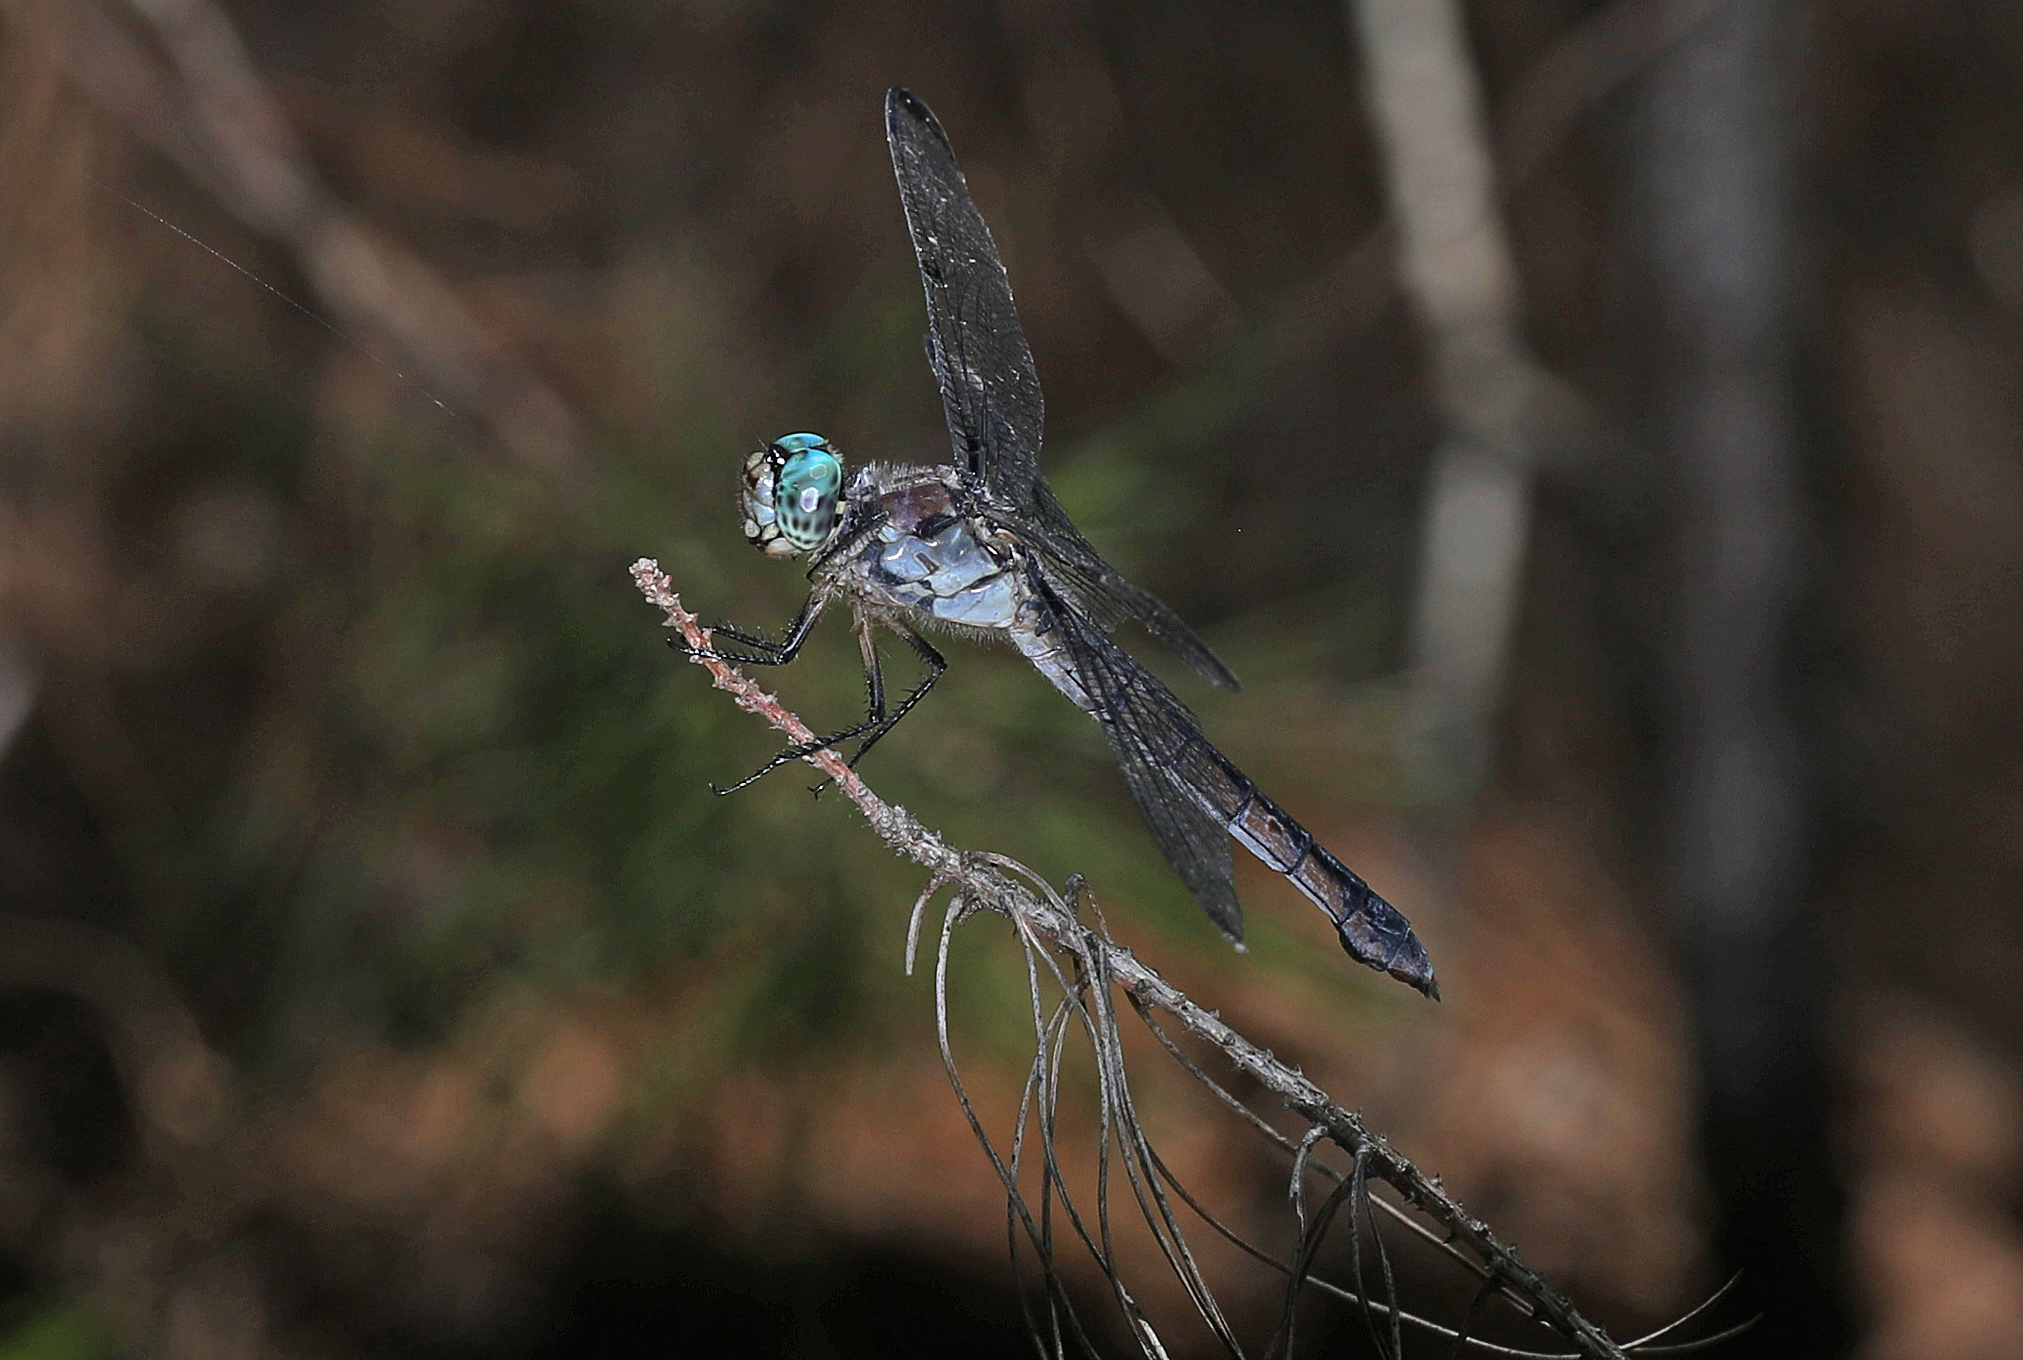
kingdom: Animalia
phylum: Arthropoda
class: Insecta
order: Odonata
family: Libellulidae
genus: Libellula
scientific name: Libellula vibrans
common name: Great blue skimmer
